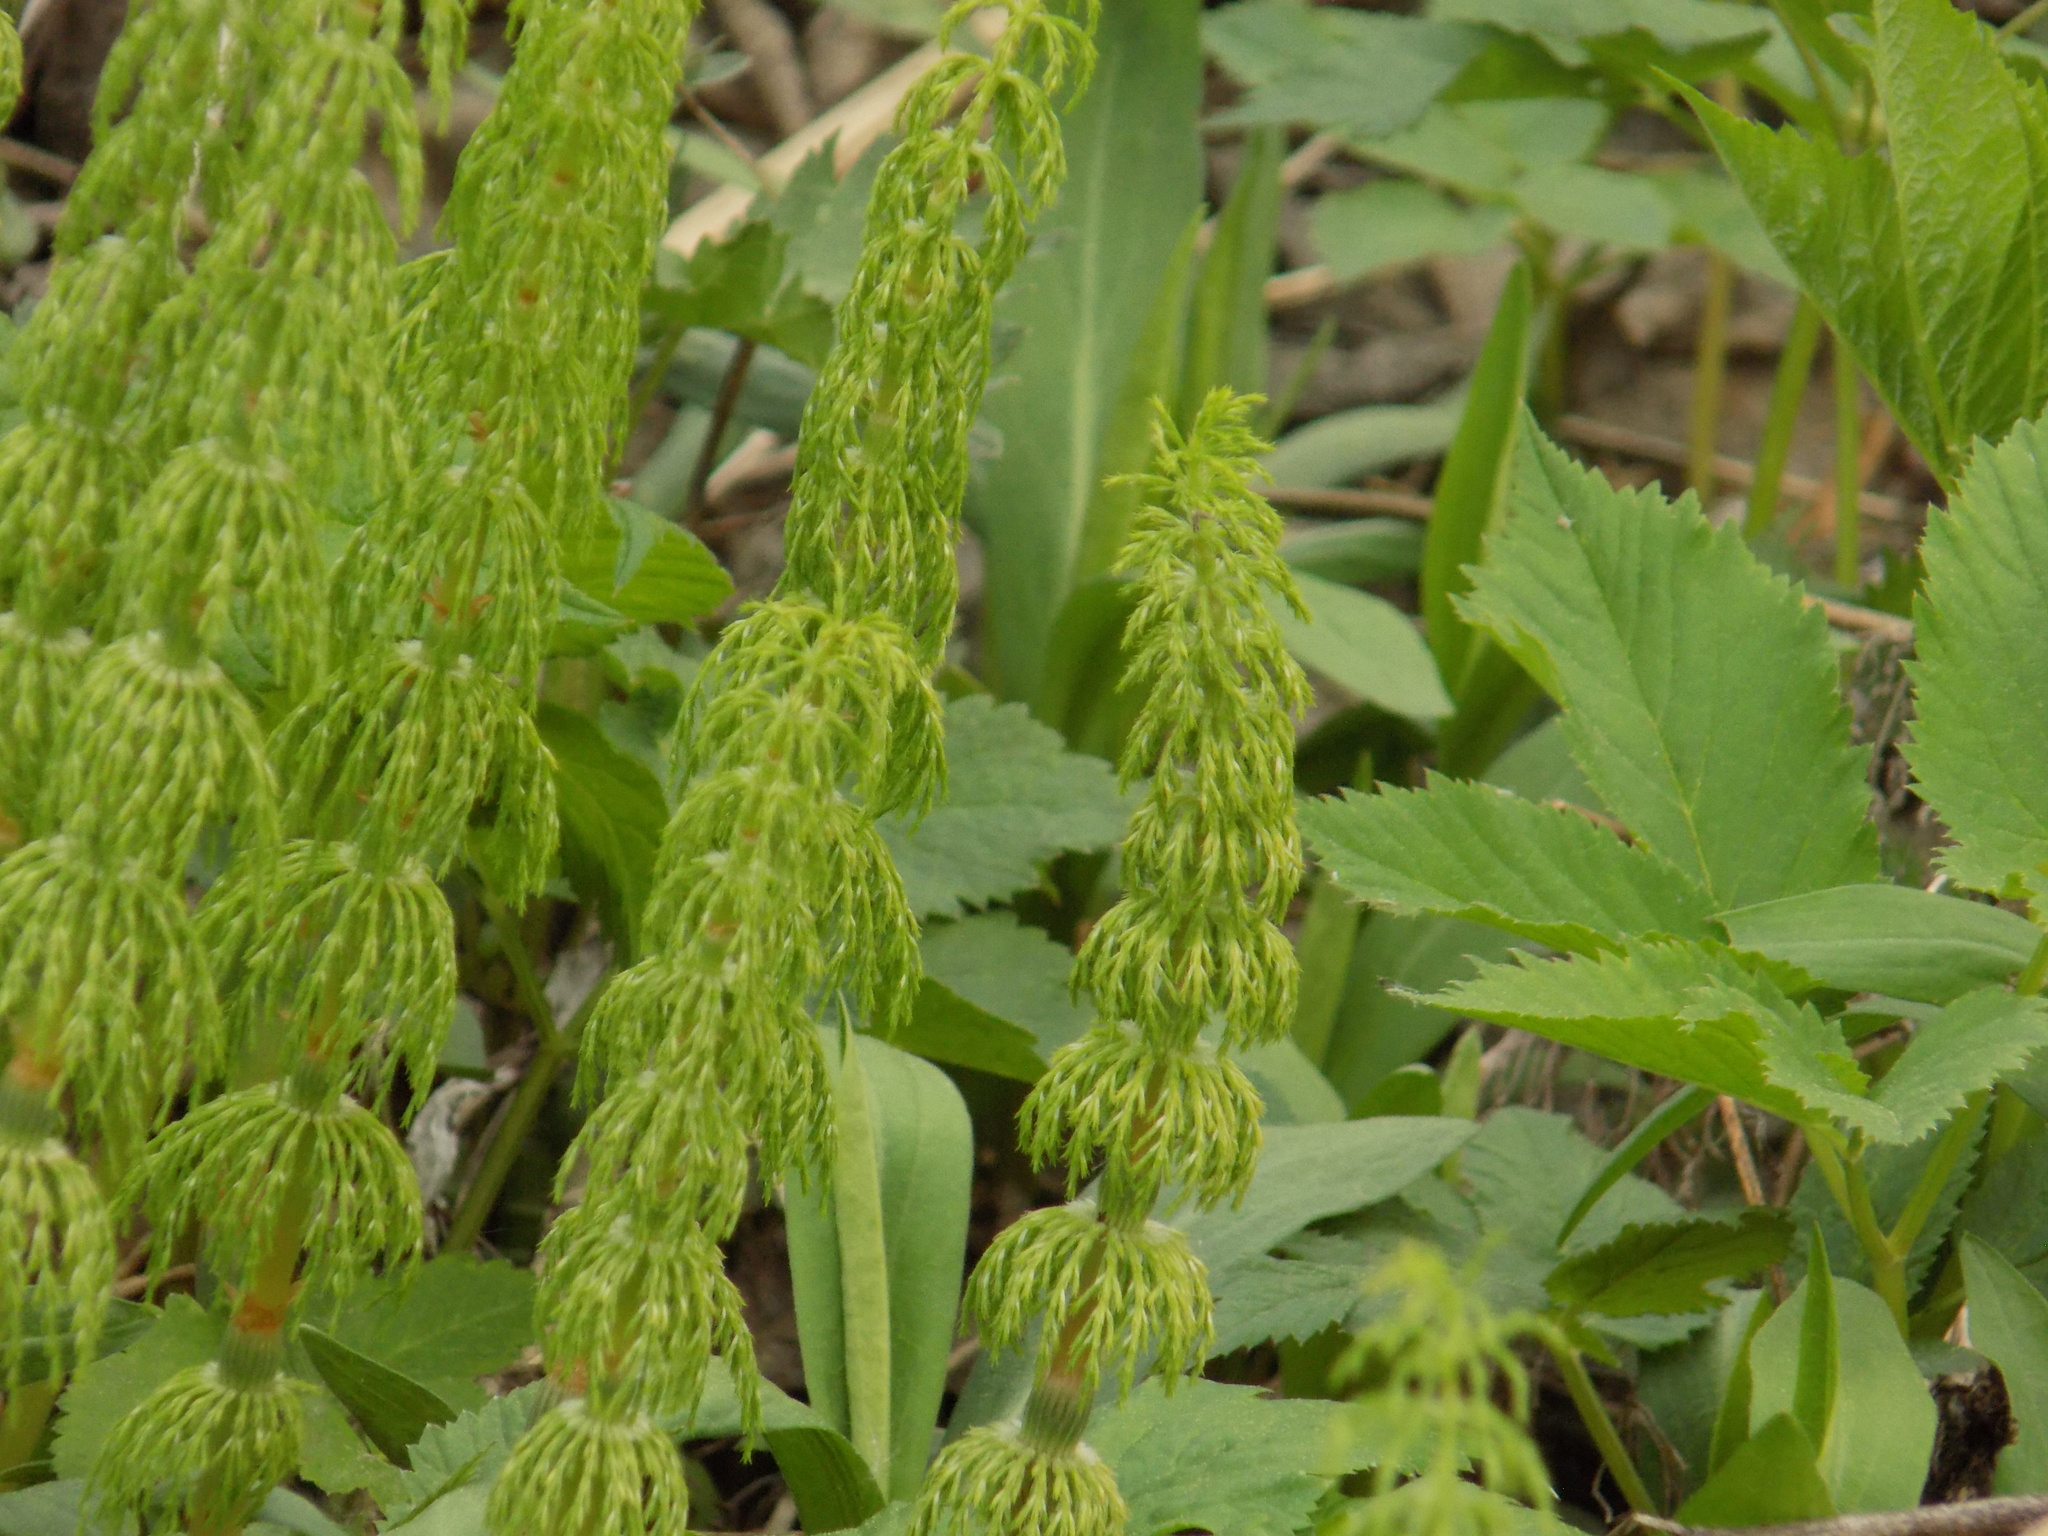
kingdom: Plantae
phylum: Tracheophyta
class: Polypodiopsida
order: Equisetales
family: Equisetaceae
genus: Equisetum
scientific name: Equisetum sylvaticum
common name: Wood horsetail
